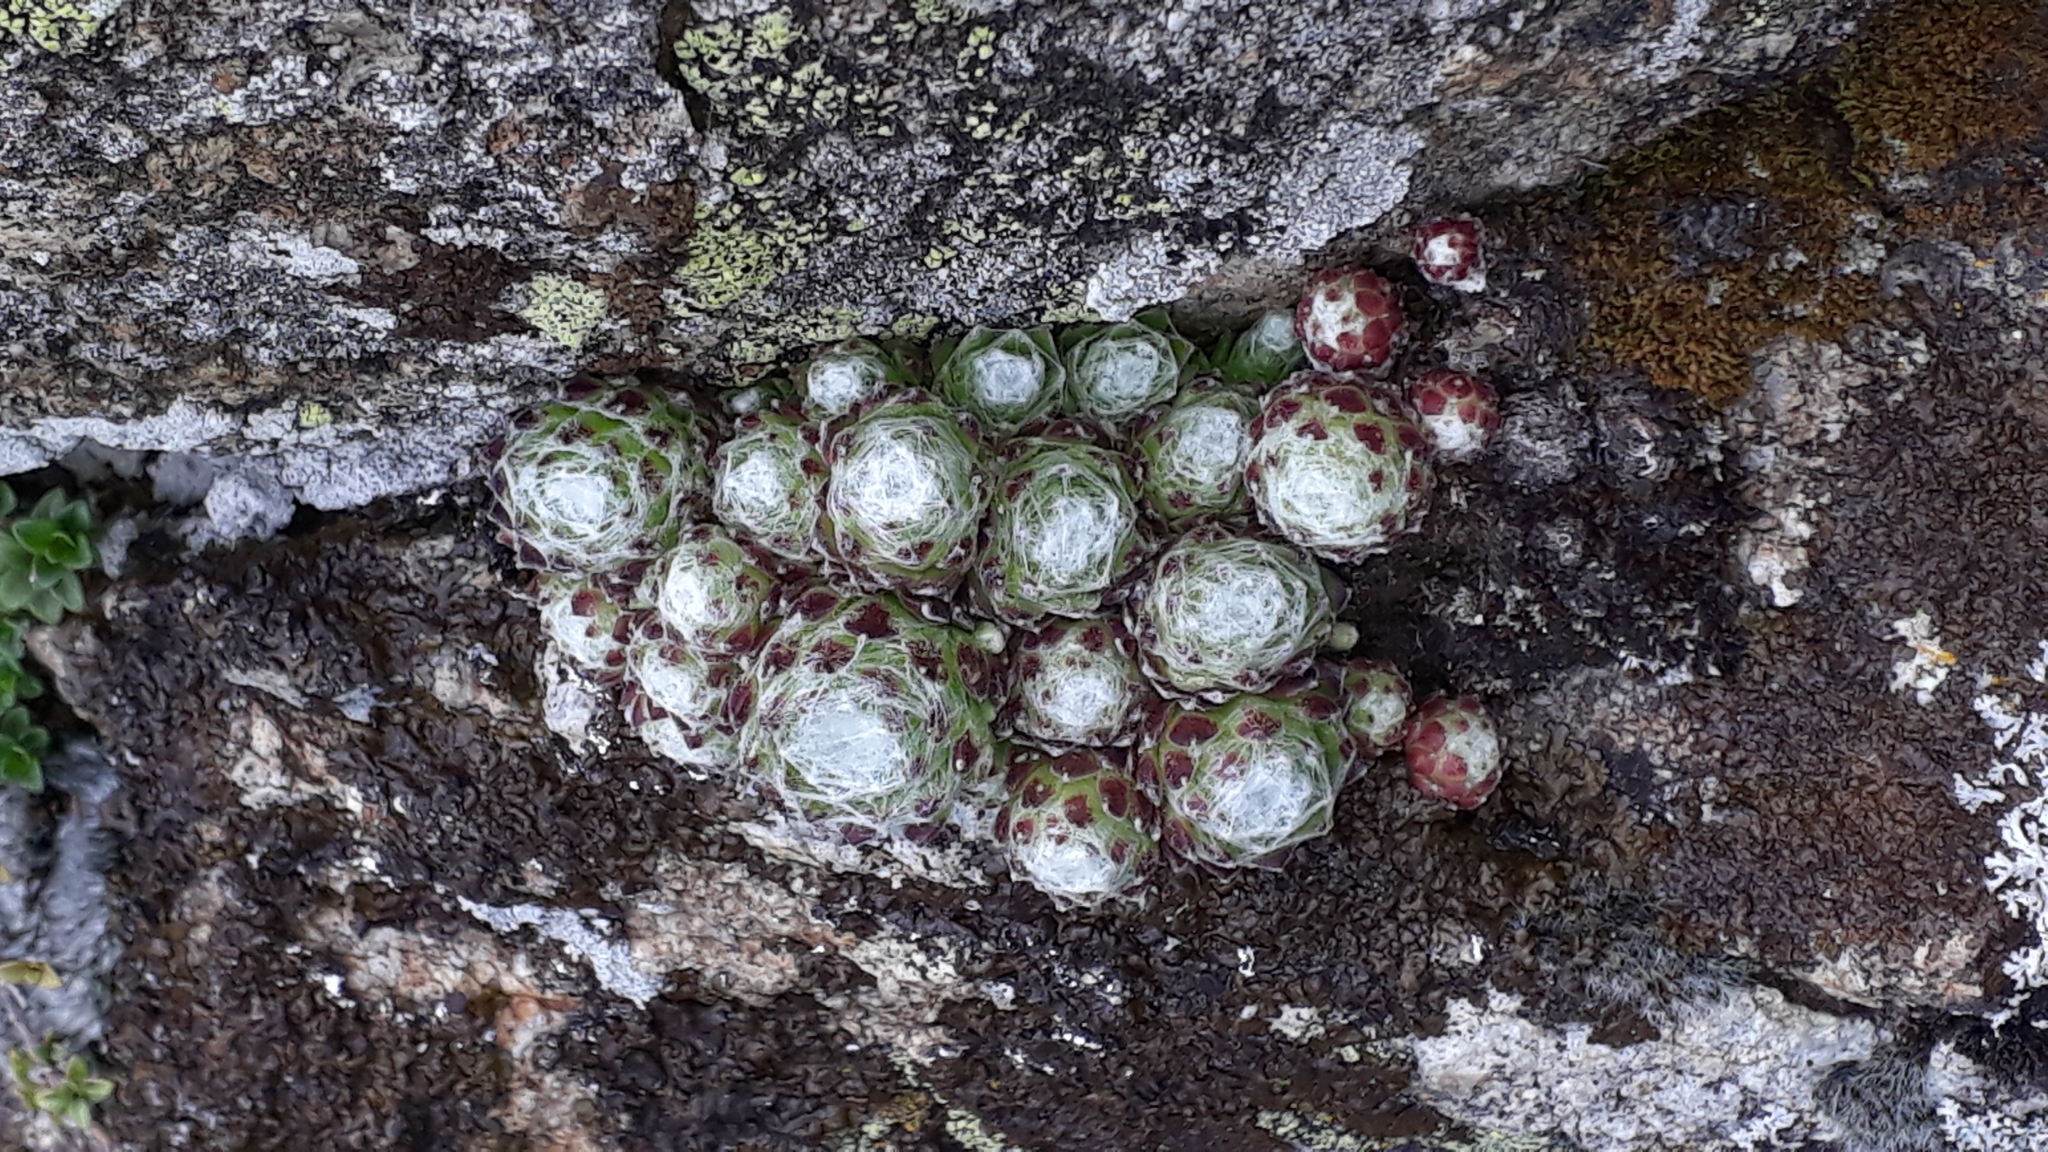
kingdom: Plantae
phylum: Tracheophyta
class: Magnoliopsida
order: Saxifragales
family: Crassulaceae
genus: Sempervivum
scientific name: Sempervivum arachnoideum
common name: Cobweb house-leek
